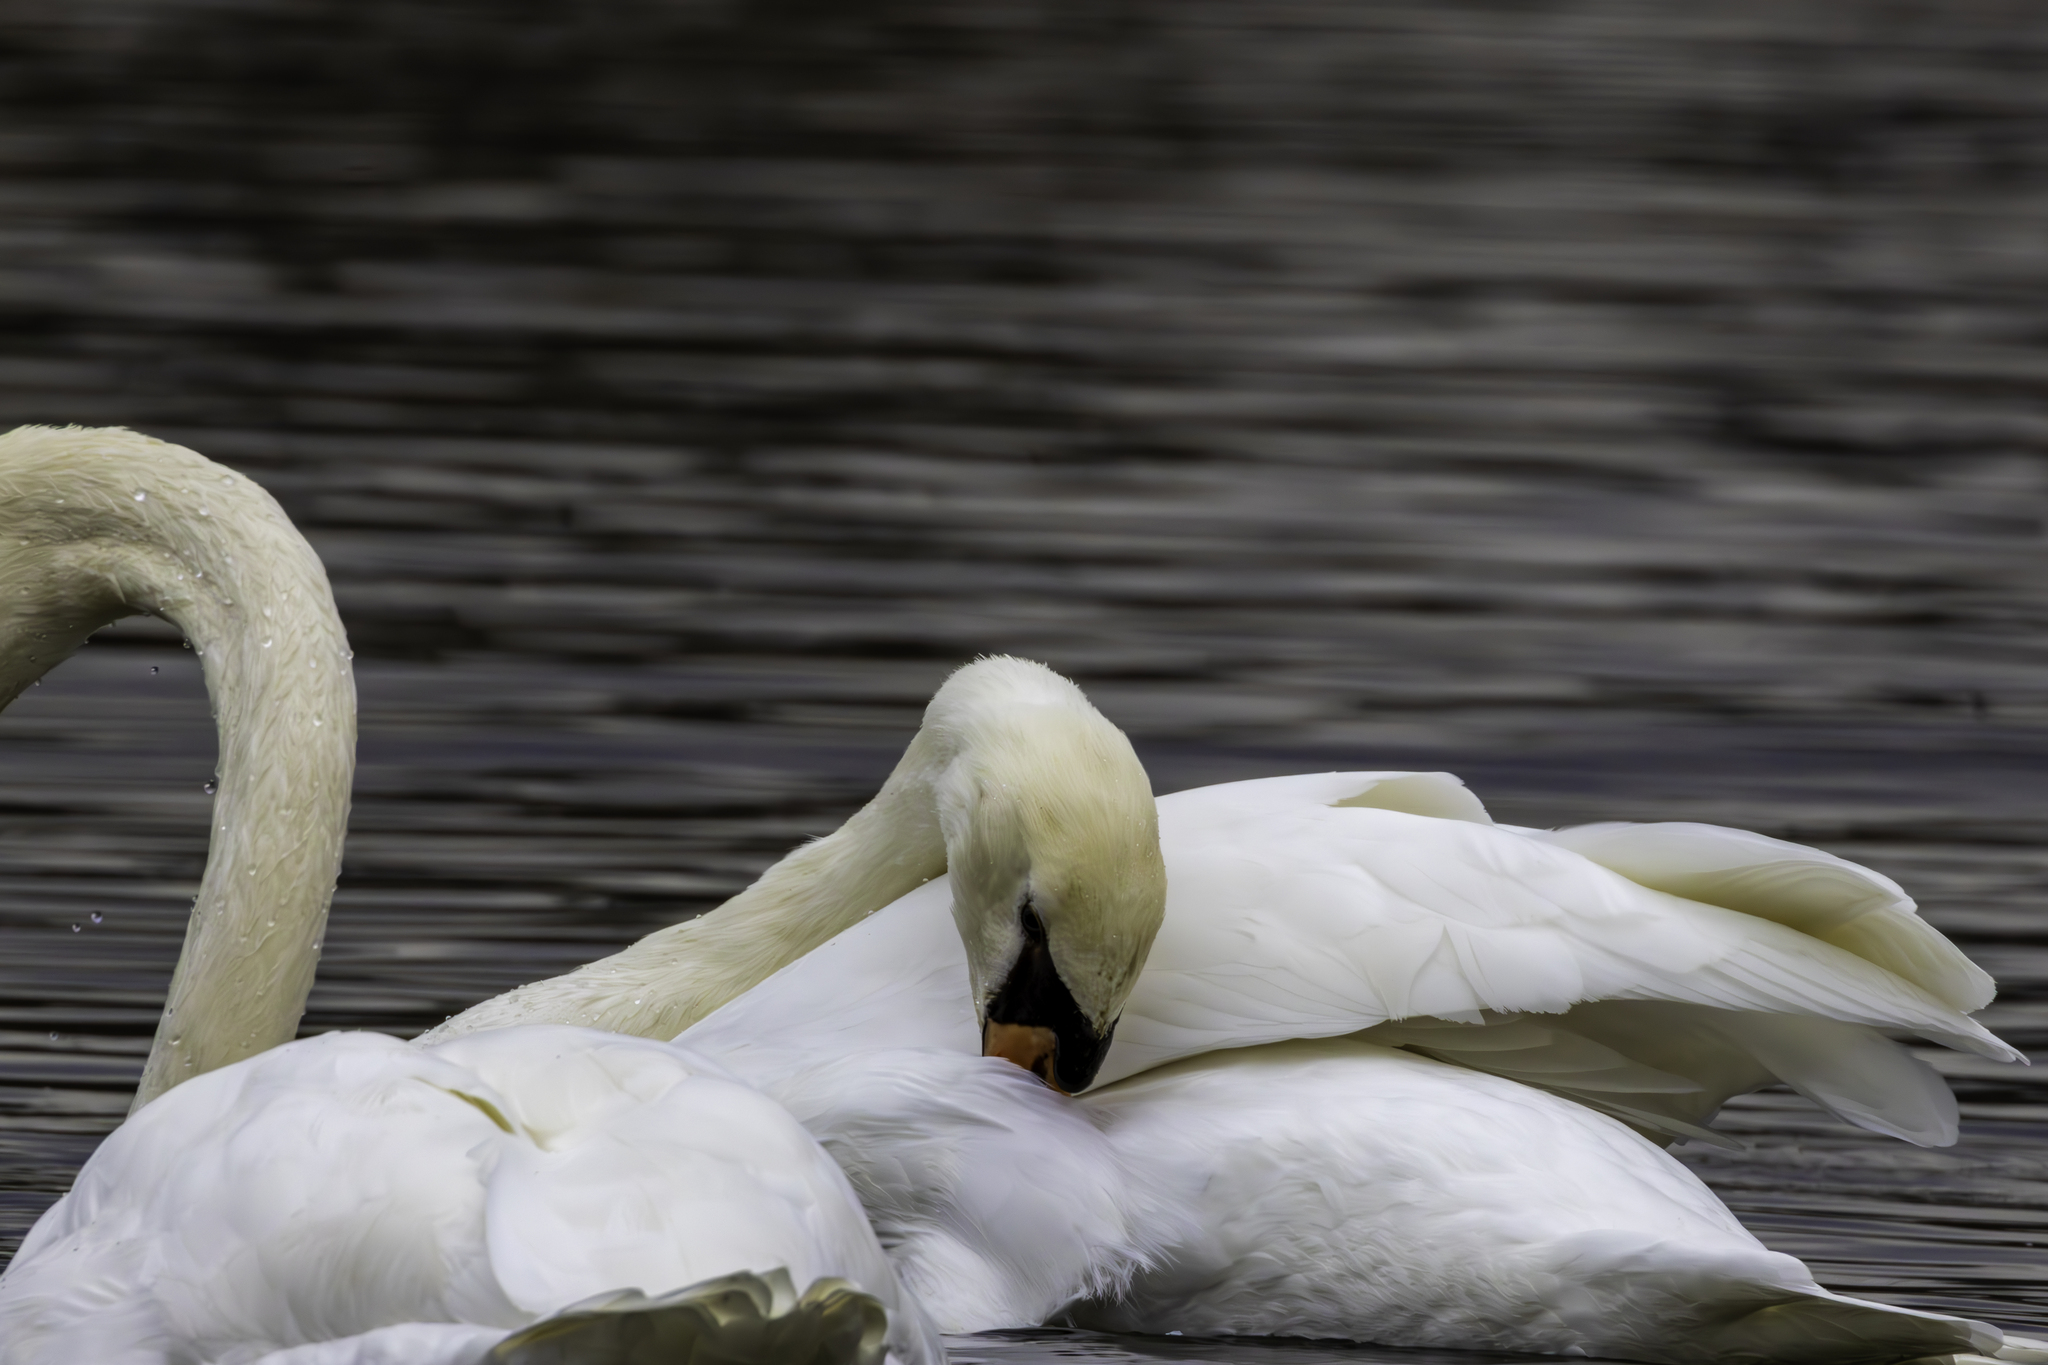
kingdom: Animalia
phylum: Chordata
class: Aves
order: Anseriformes
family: Anatidae
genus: Cygnus
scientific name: Cygnus olor
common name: Mute swan
